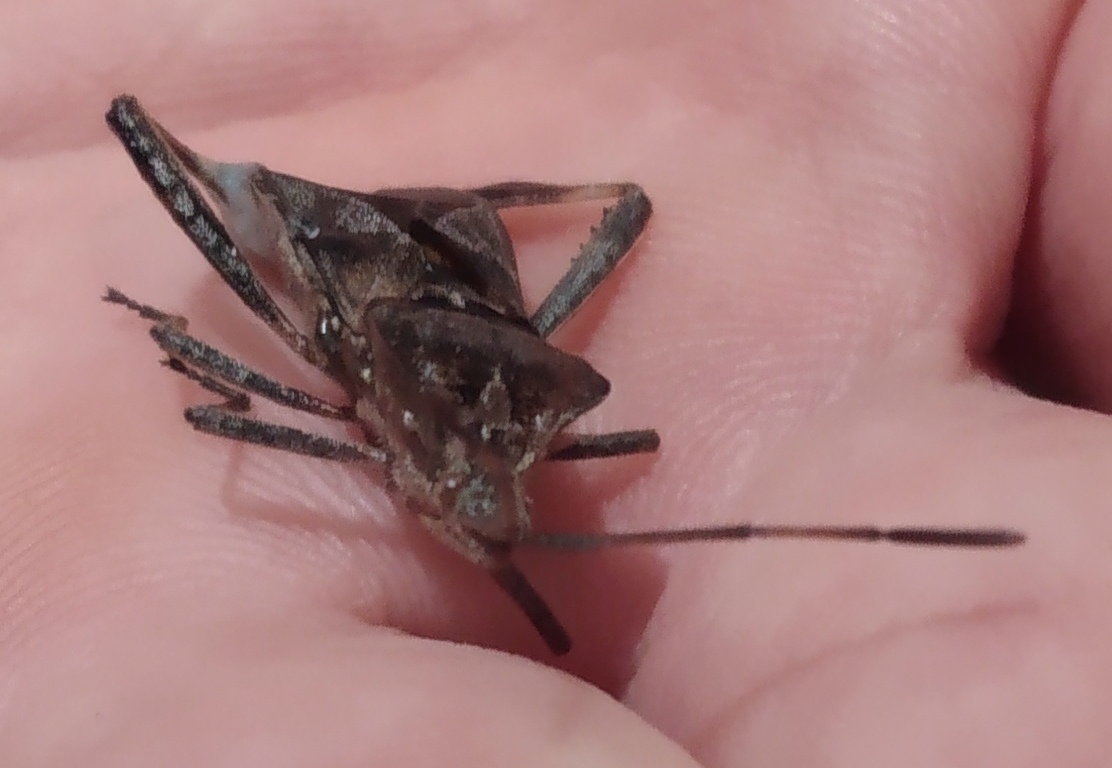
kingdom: Animalia
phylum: Arthropoda
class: Insecta
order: Hemiptera
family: Coreidae
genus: Leptoglossus
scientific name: Leptoglossus occidentalis
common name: Western conifer-seed bug
